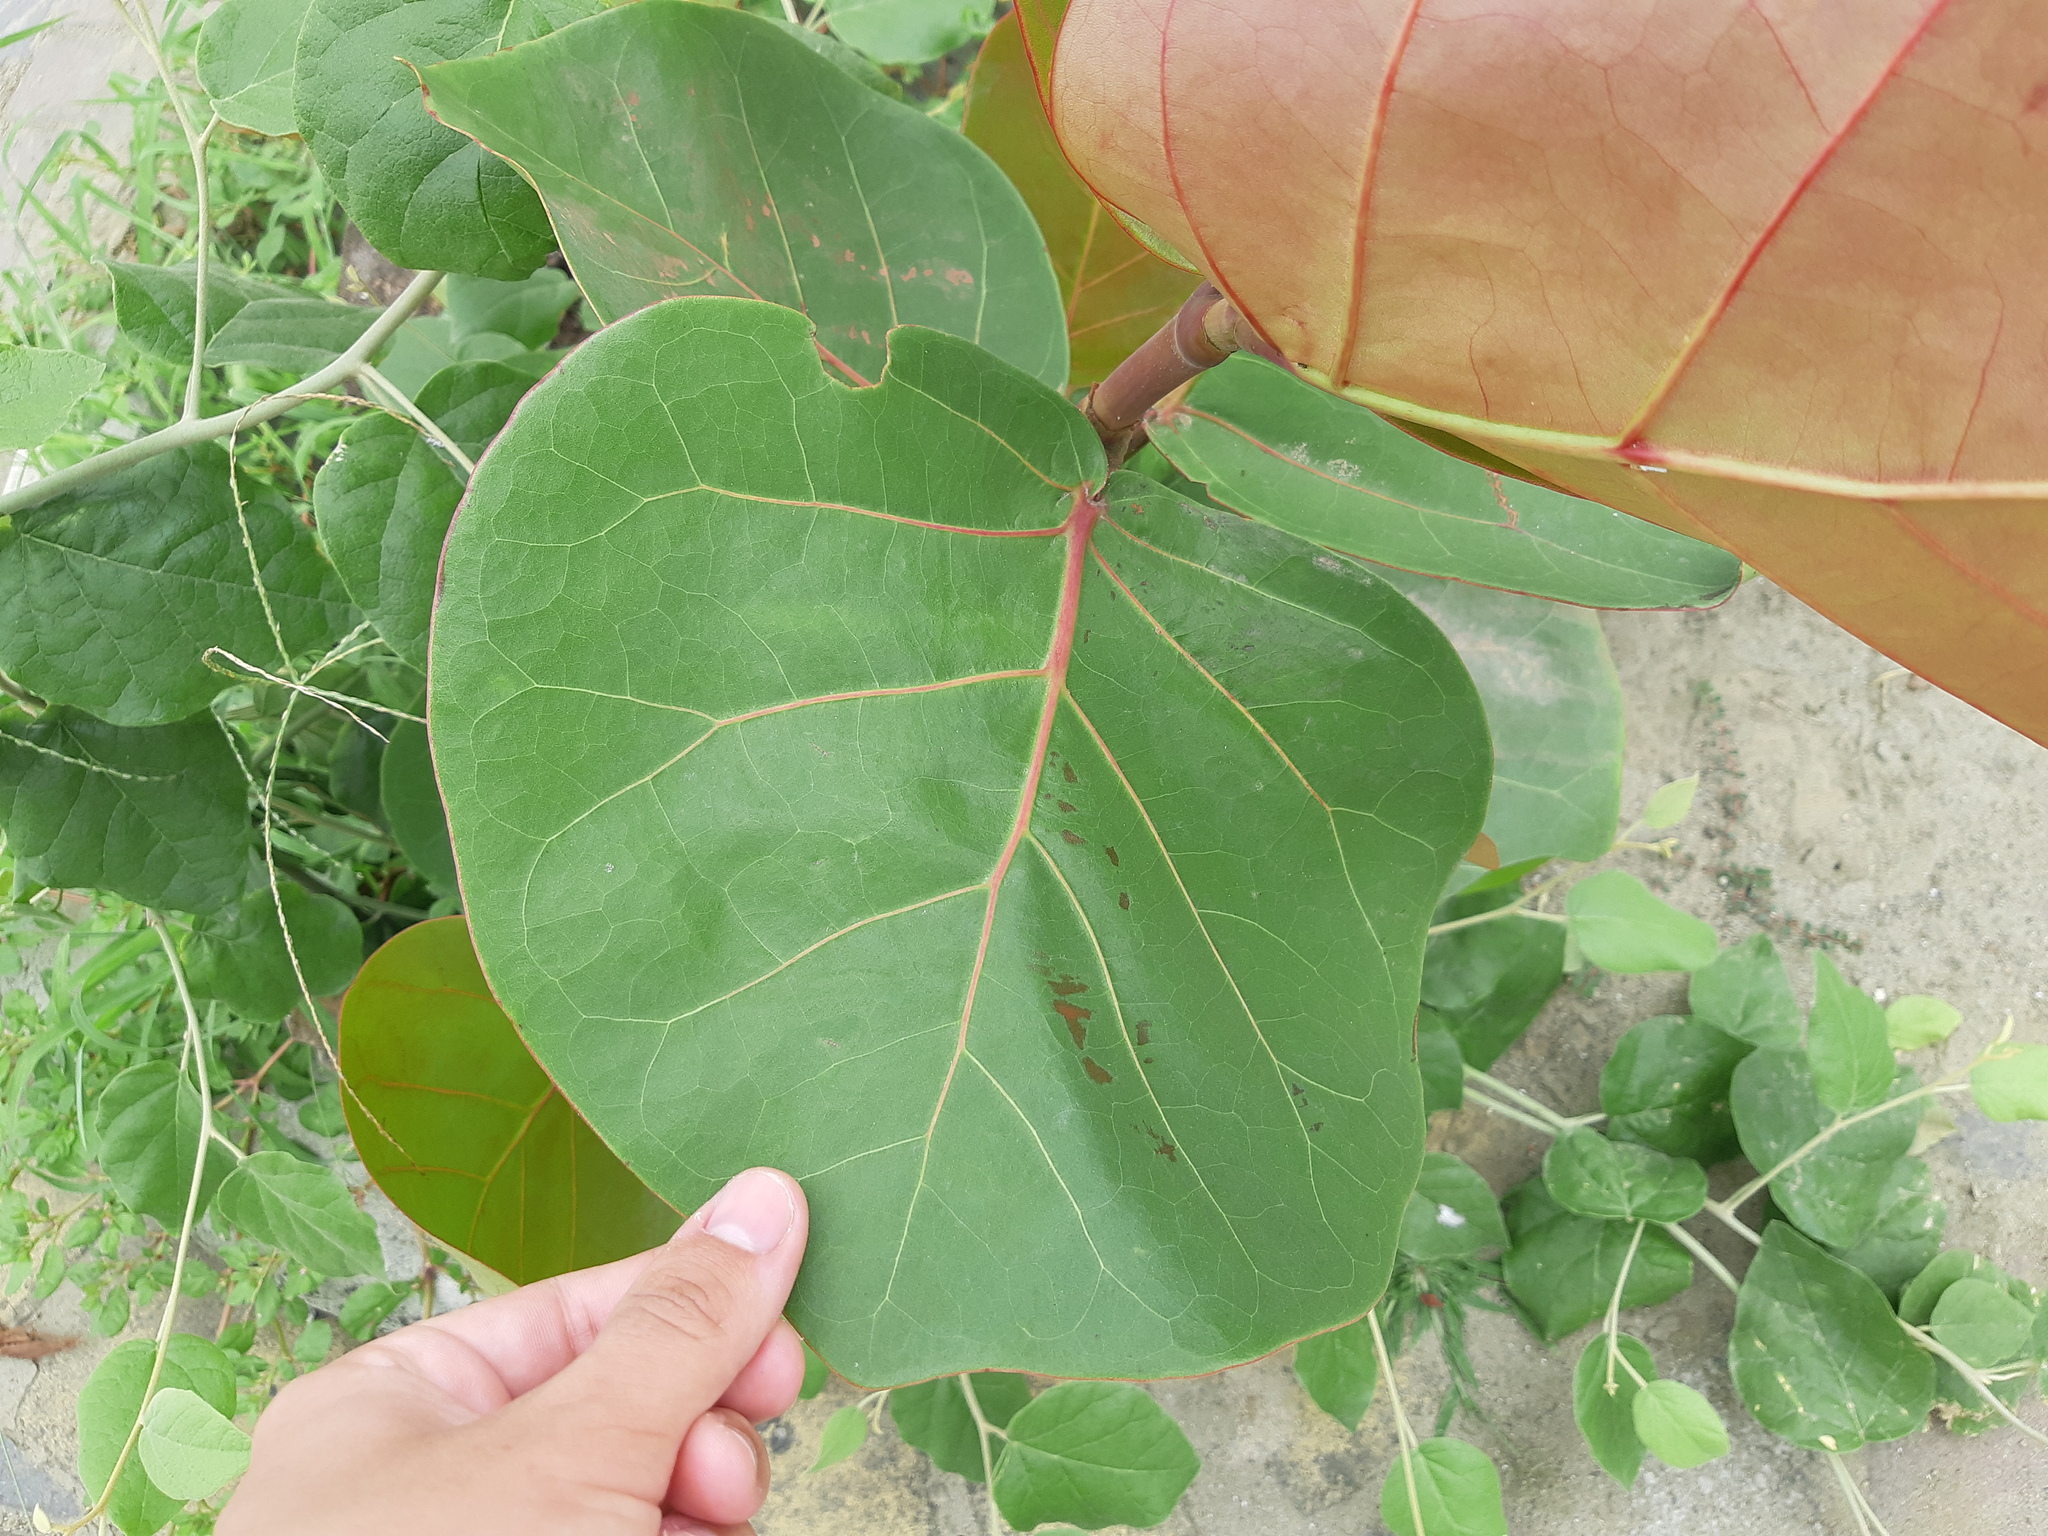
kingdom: Plantae
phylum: Tracheophyta
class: Magnoliopsida
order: Caryophyllales
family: Polygonaceae
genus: Coccoloba
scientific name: Coccoloba uvifera
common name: Seagrape
